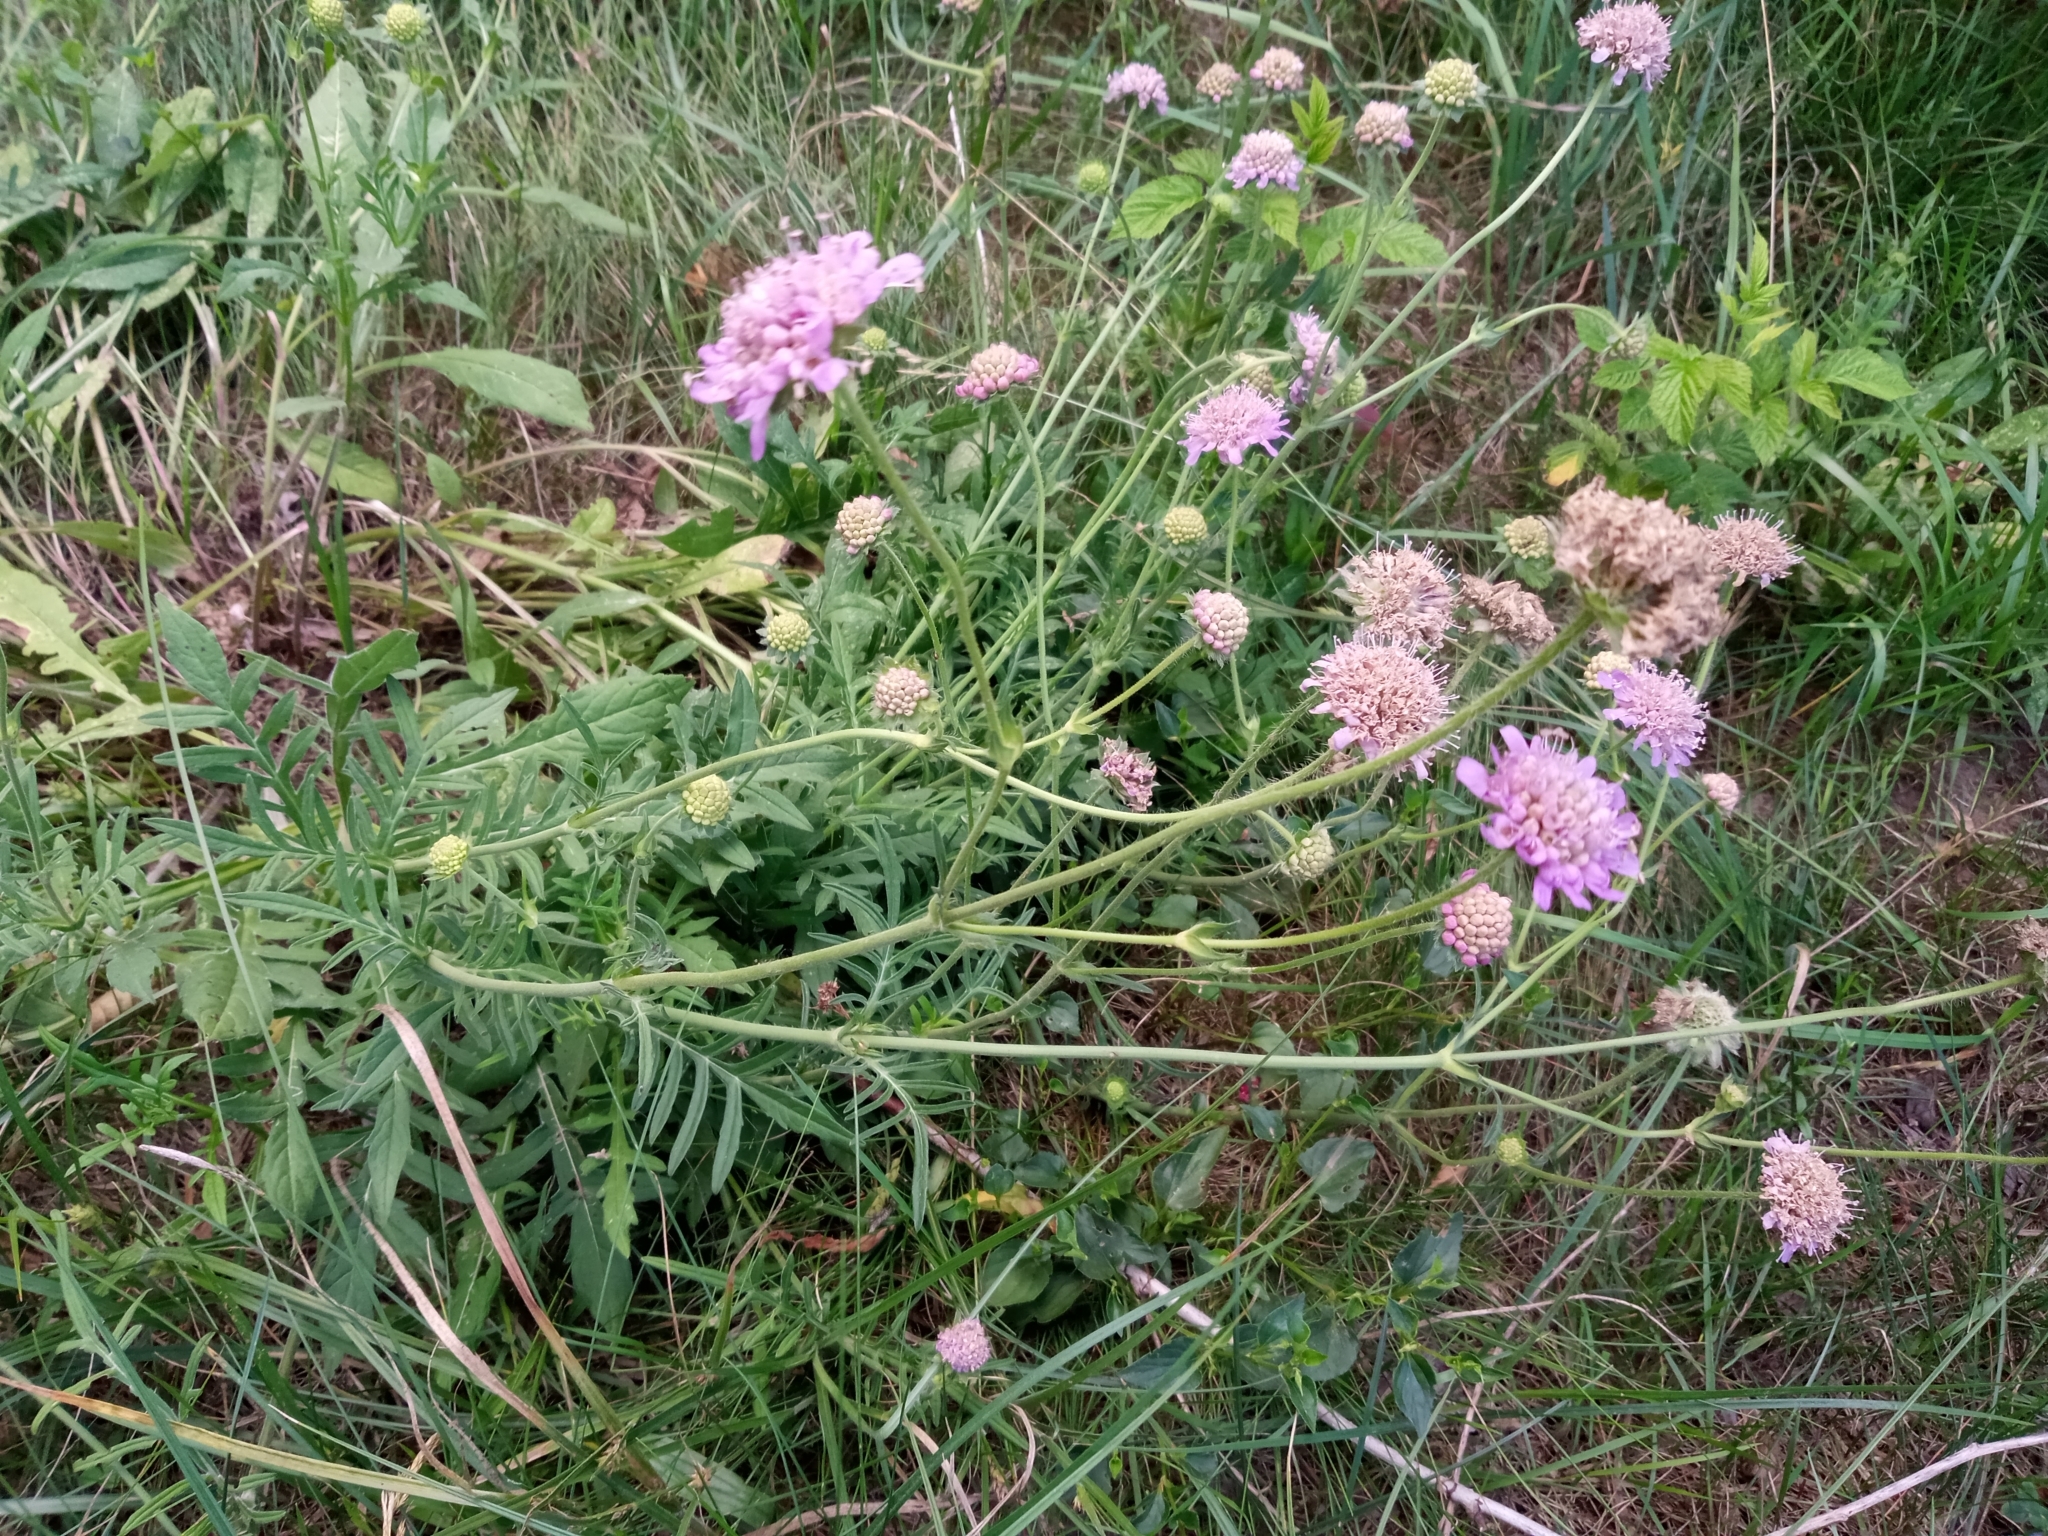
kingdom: Plantae
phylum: Tracheophyta
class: Magnoliopsida
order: Dipsacales
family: Caprifoliaceae
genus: Knautia
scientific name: Knautia arvensis
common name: Field scabiosa
